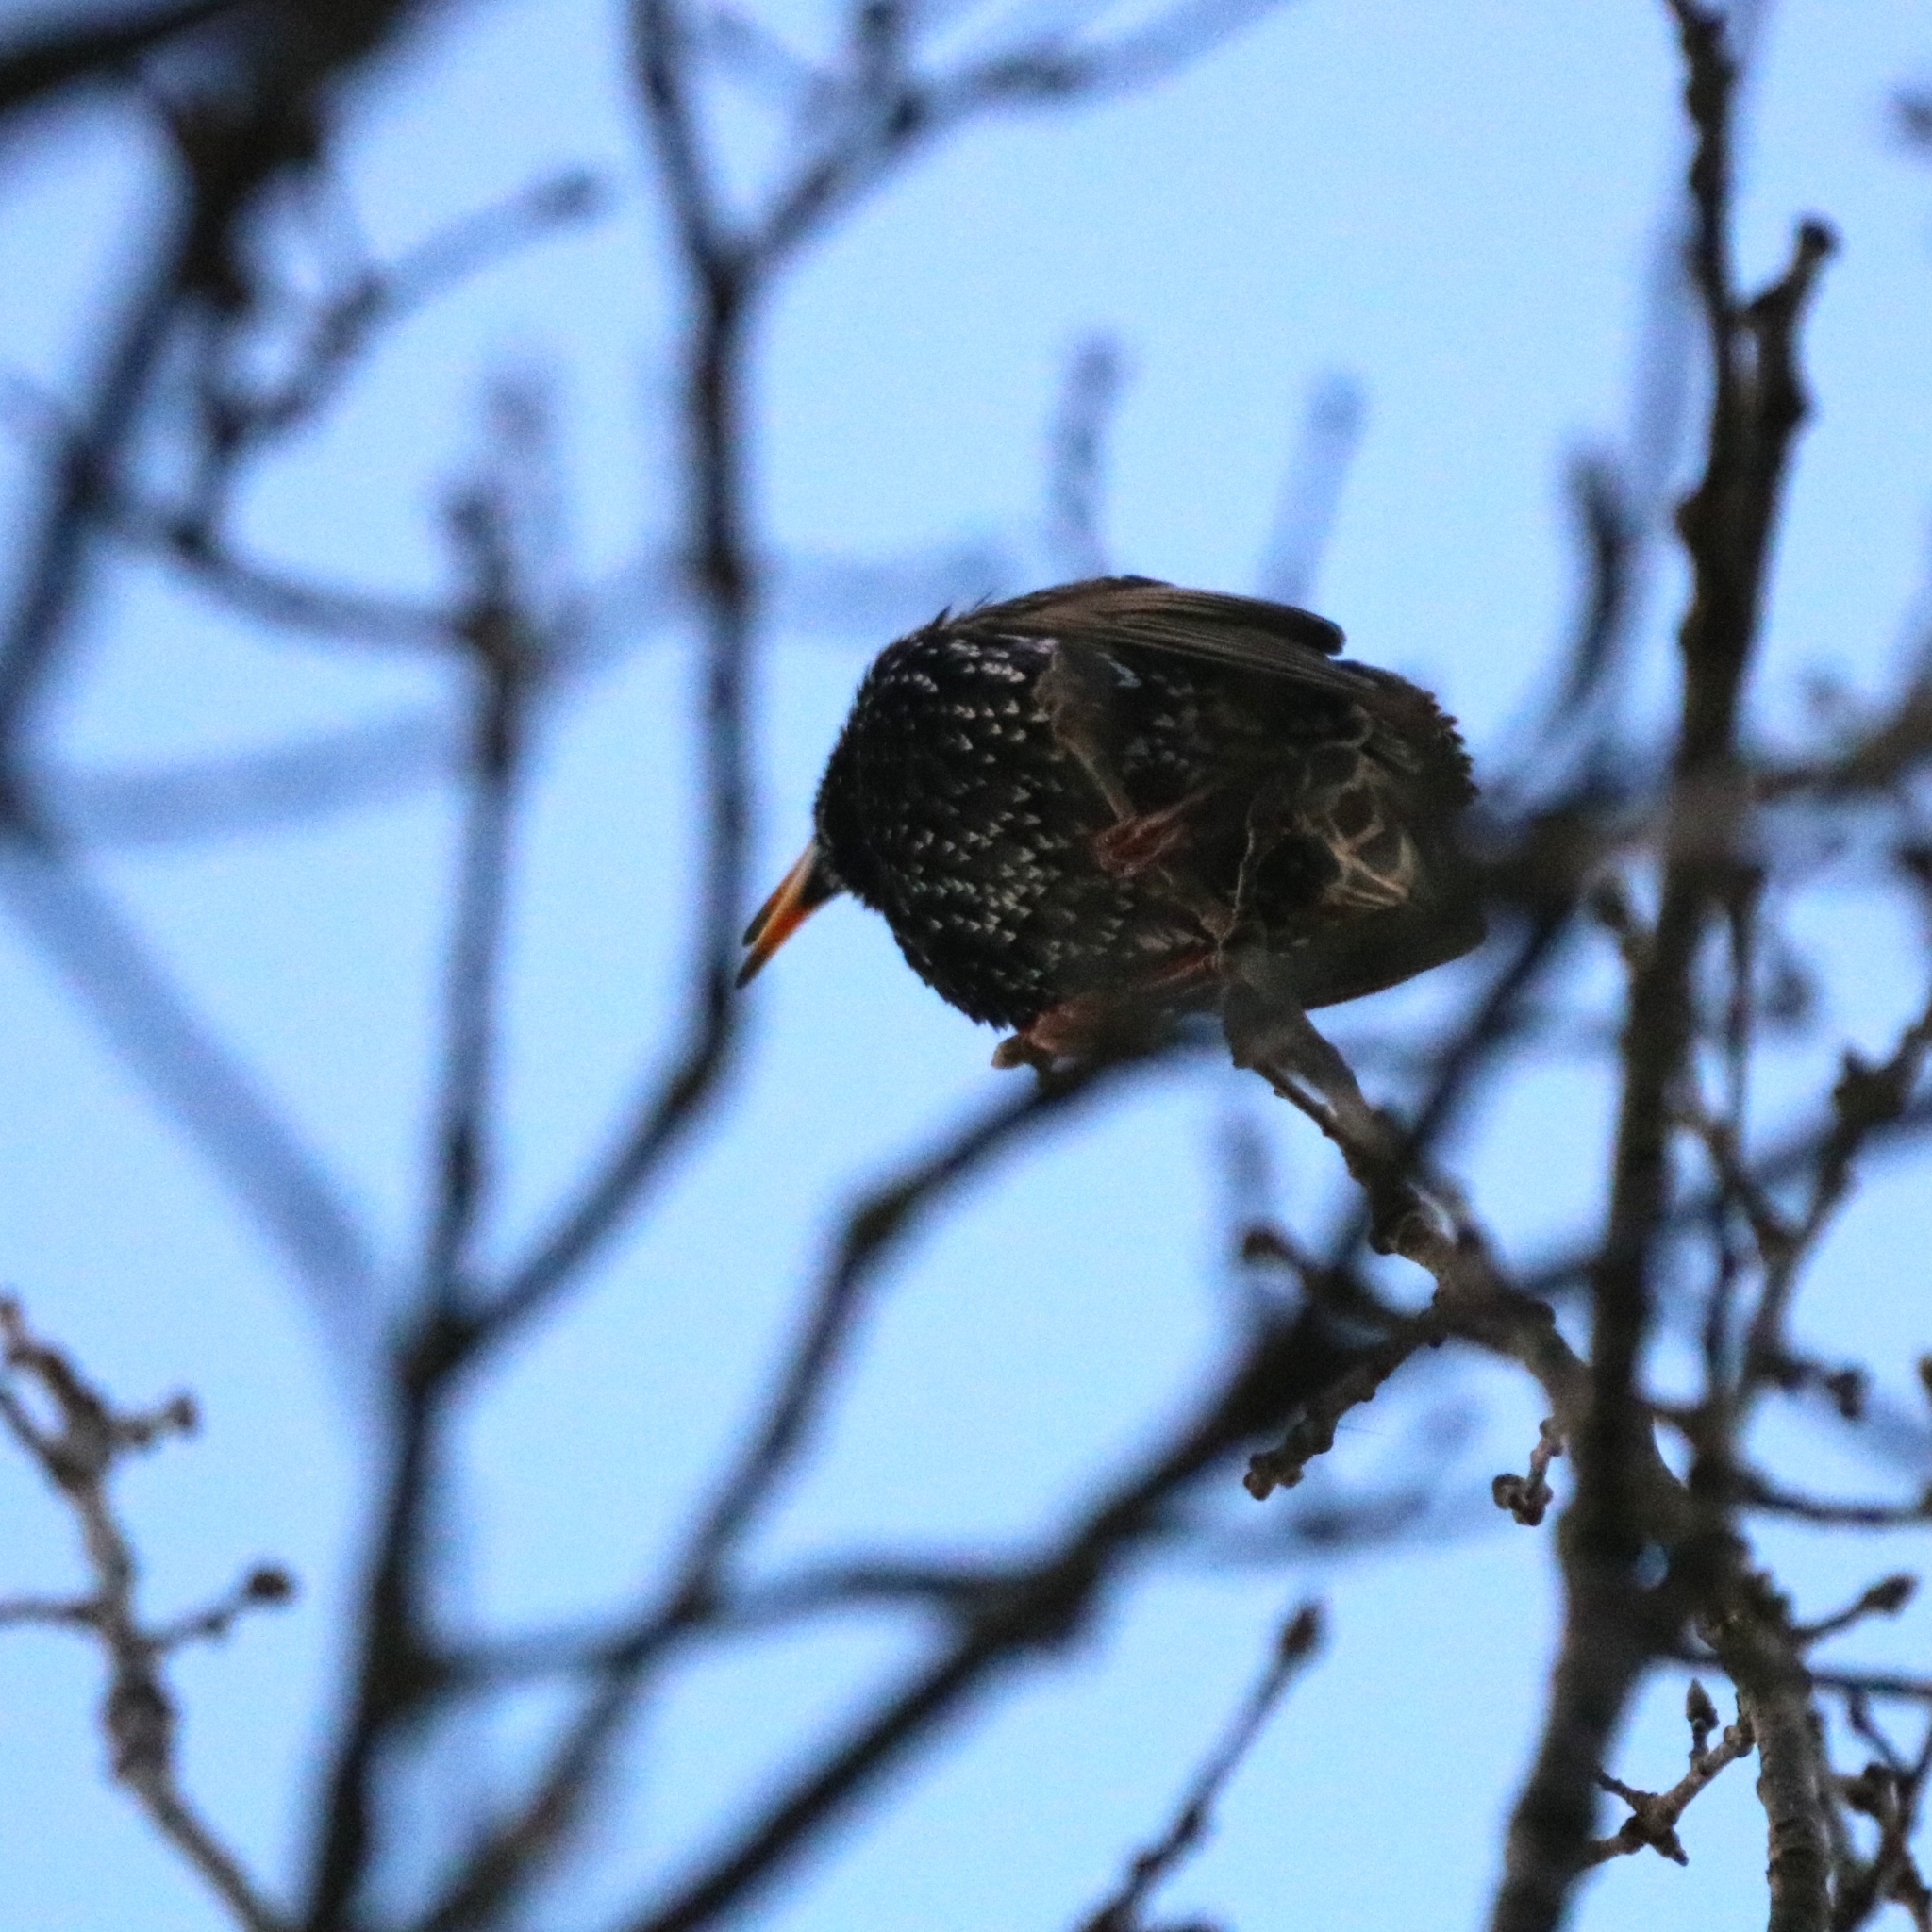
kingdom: Animalia
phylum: Chordata
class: Aves
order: Passeriformes
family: Sturnidae
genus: Sturnus
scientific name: Sturnus vulgaris
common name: Common starling
